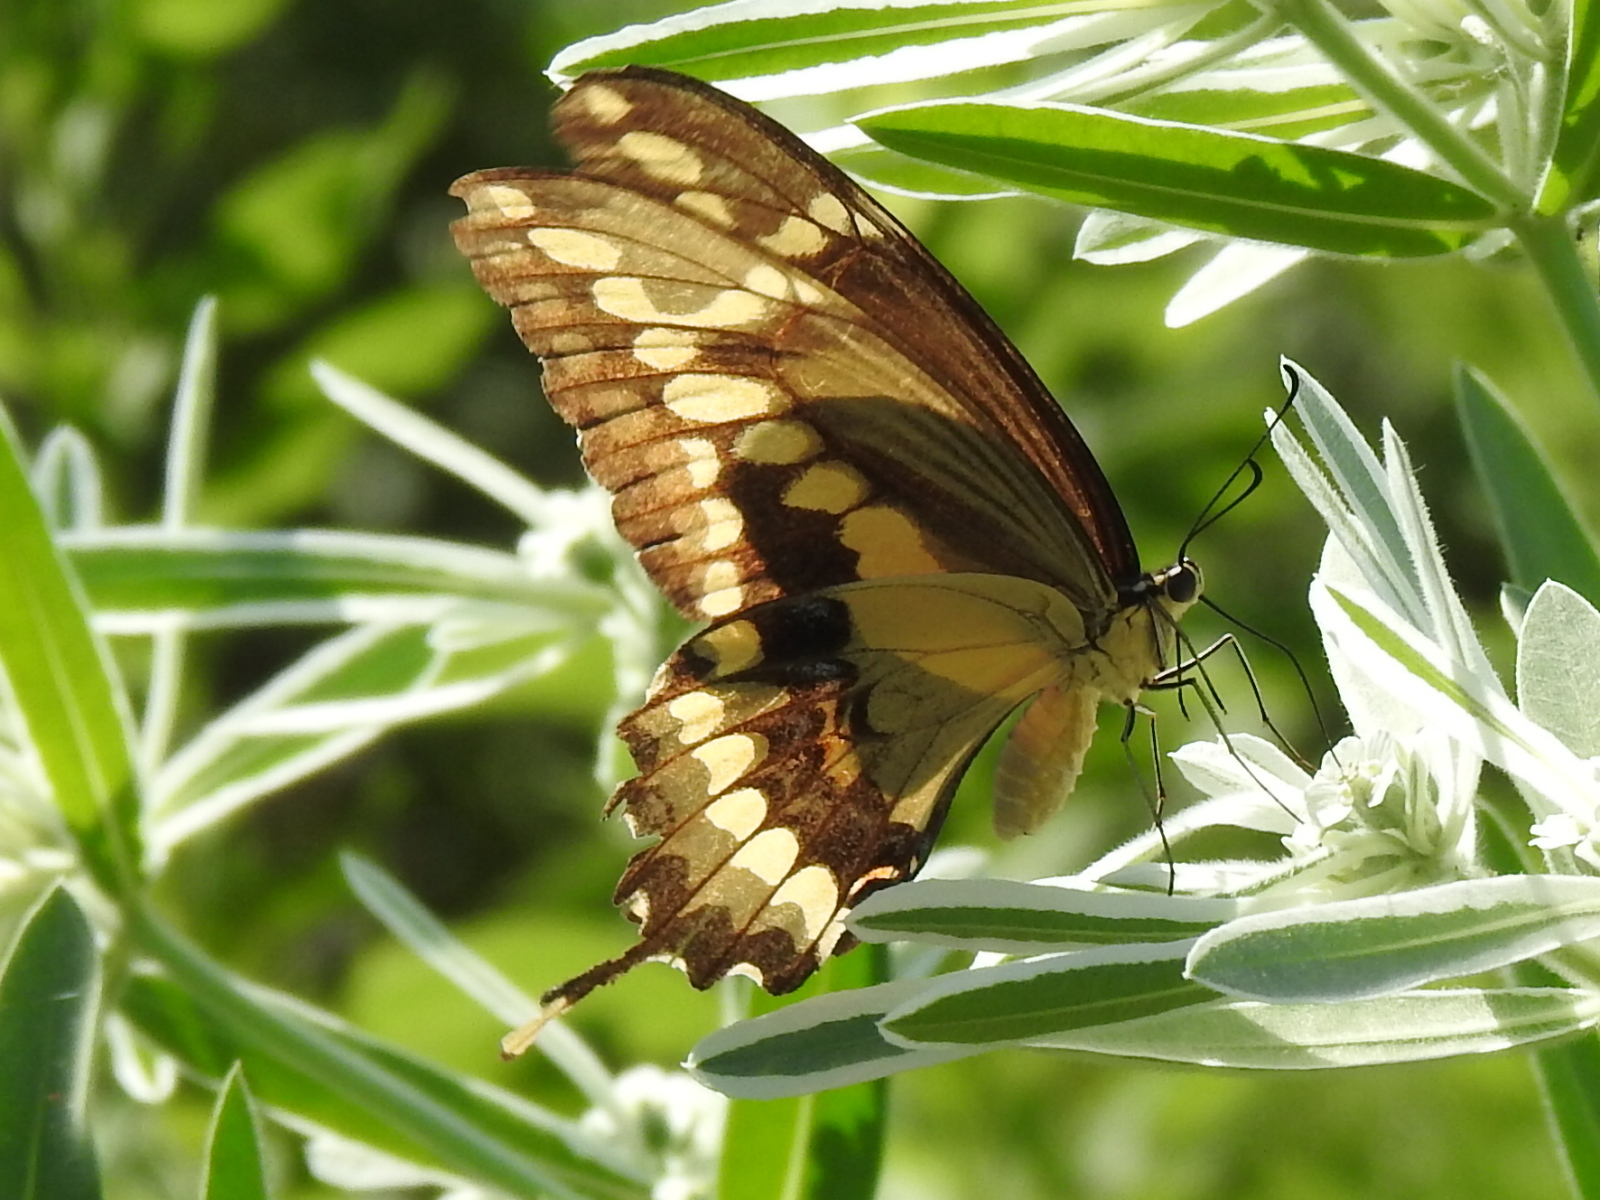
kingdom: Animalia
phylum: Arthropoda
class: Insecta
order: Lepidoptera
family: Papilionidae
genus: Papilio
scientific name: Papilio cresphontes
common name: Giant swallowtail
